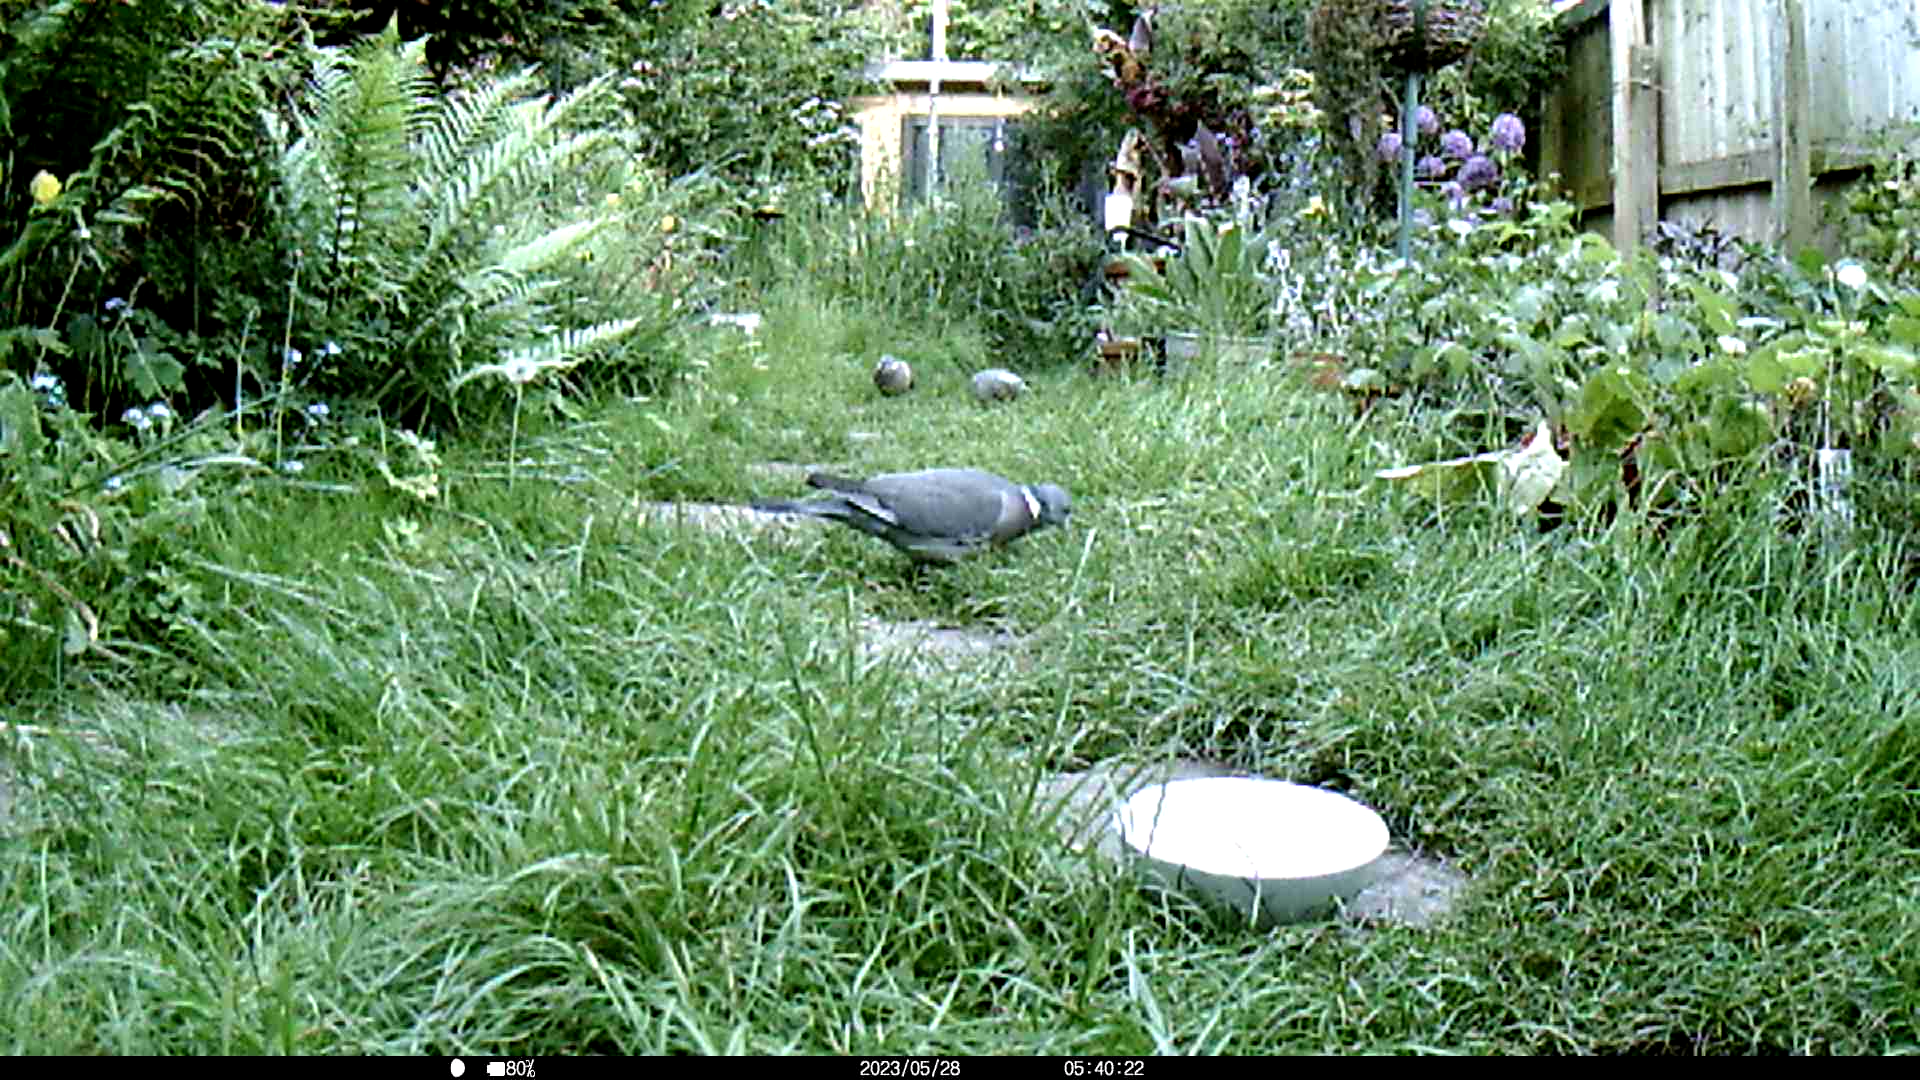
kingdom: Animalia
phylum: Chordata
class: Aves
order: Columbiformes
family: Columbidae
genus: Columba
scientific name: Columba palumbus
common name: Common wood pigeon
